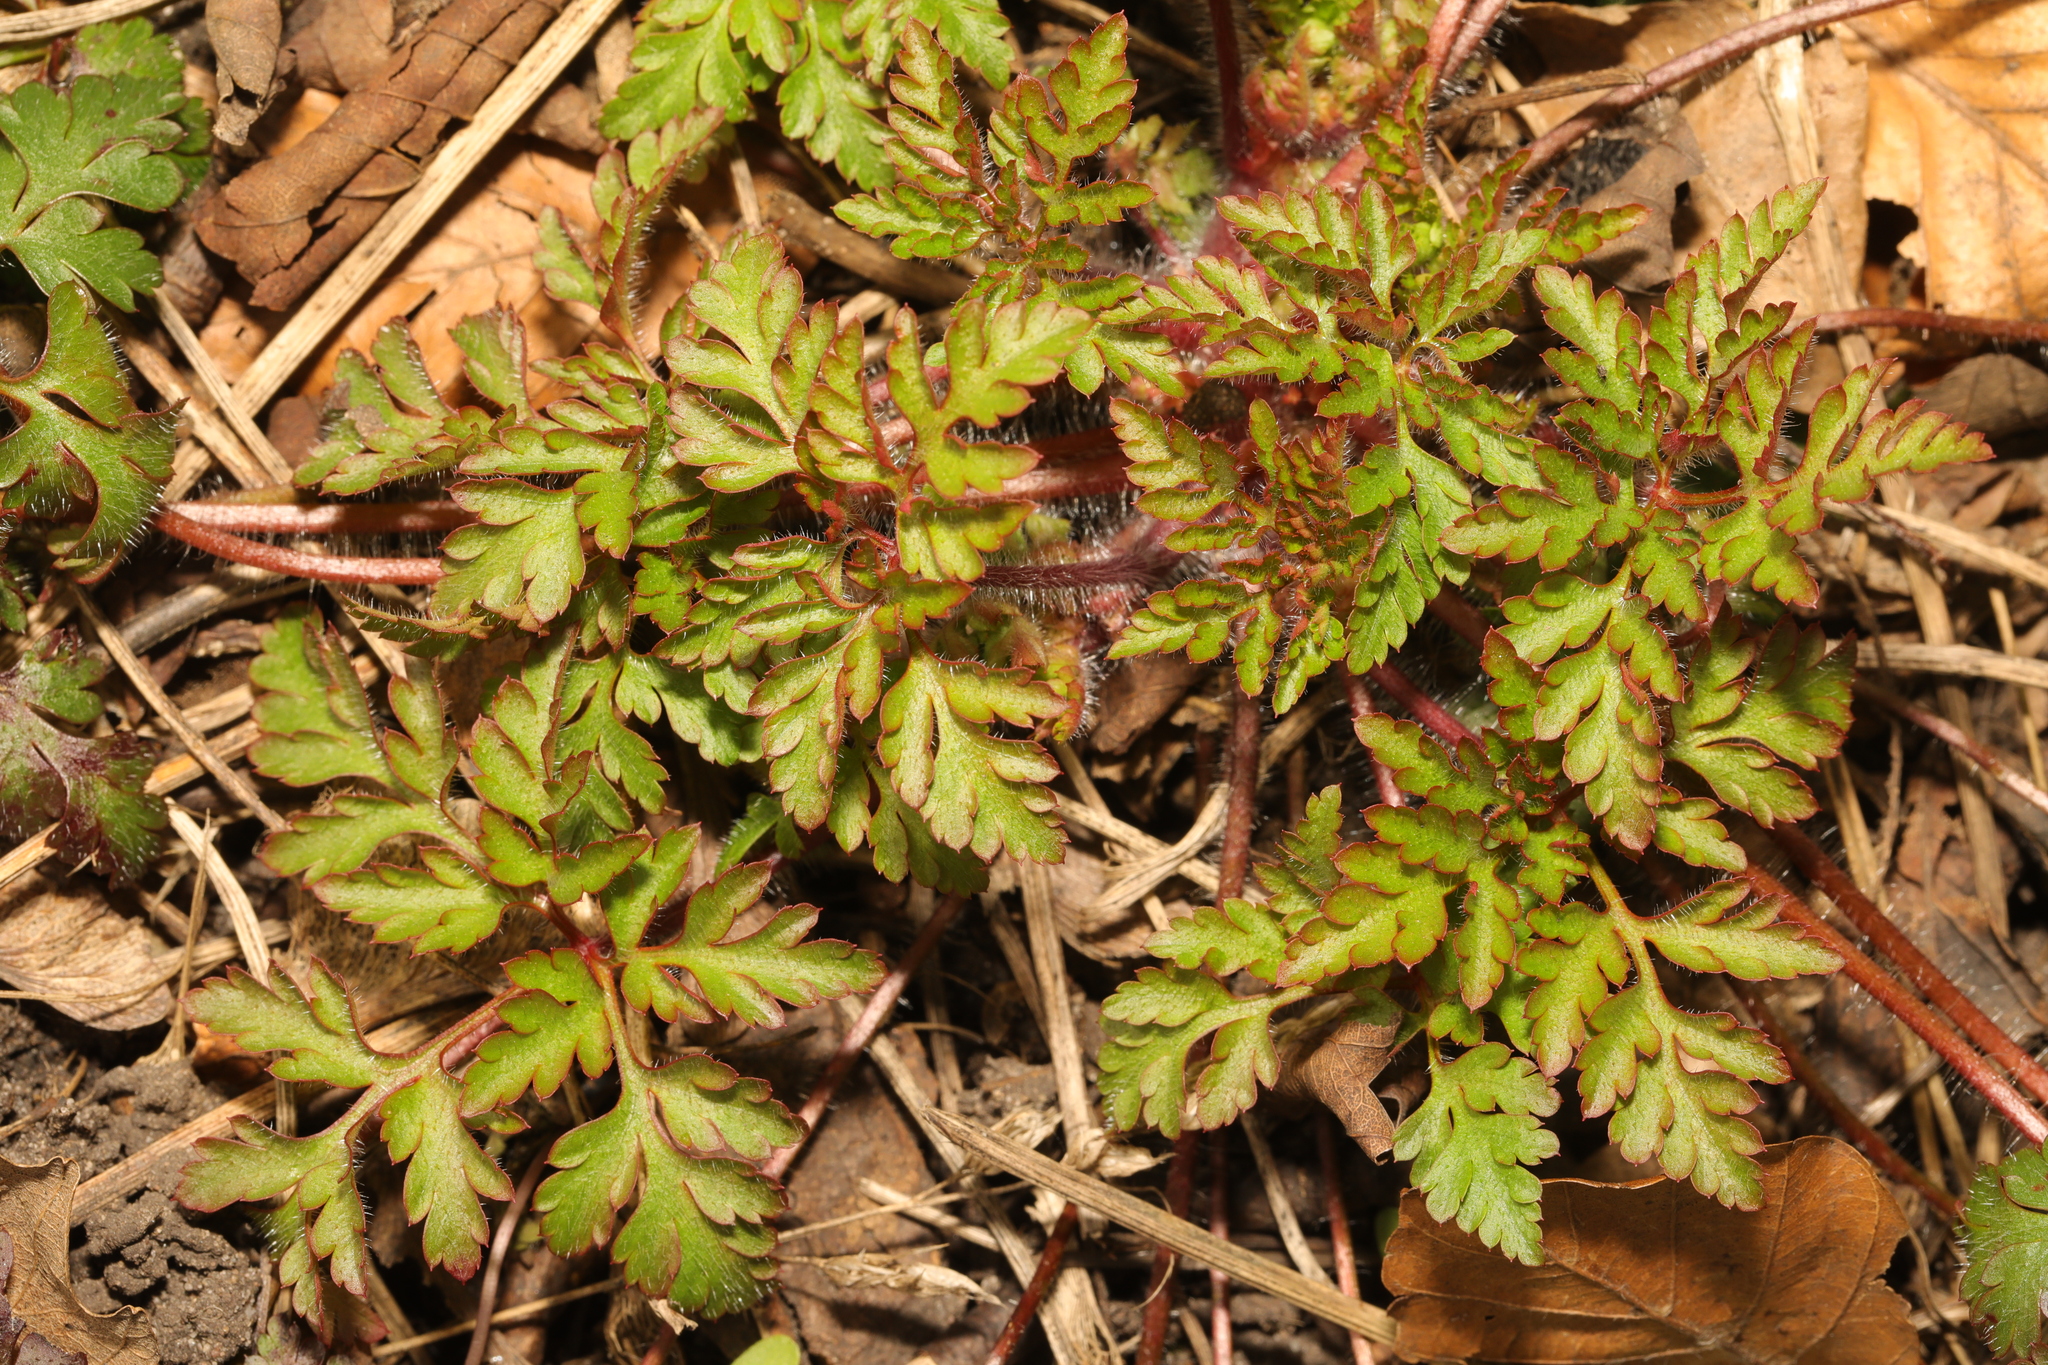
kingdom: Plantae
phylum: Tracheophyta
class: Magnoliopsida
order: Geraniales
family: Geraniaceae
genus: Geranium
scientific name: Geranium robertianum
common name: Herb-robert
